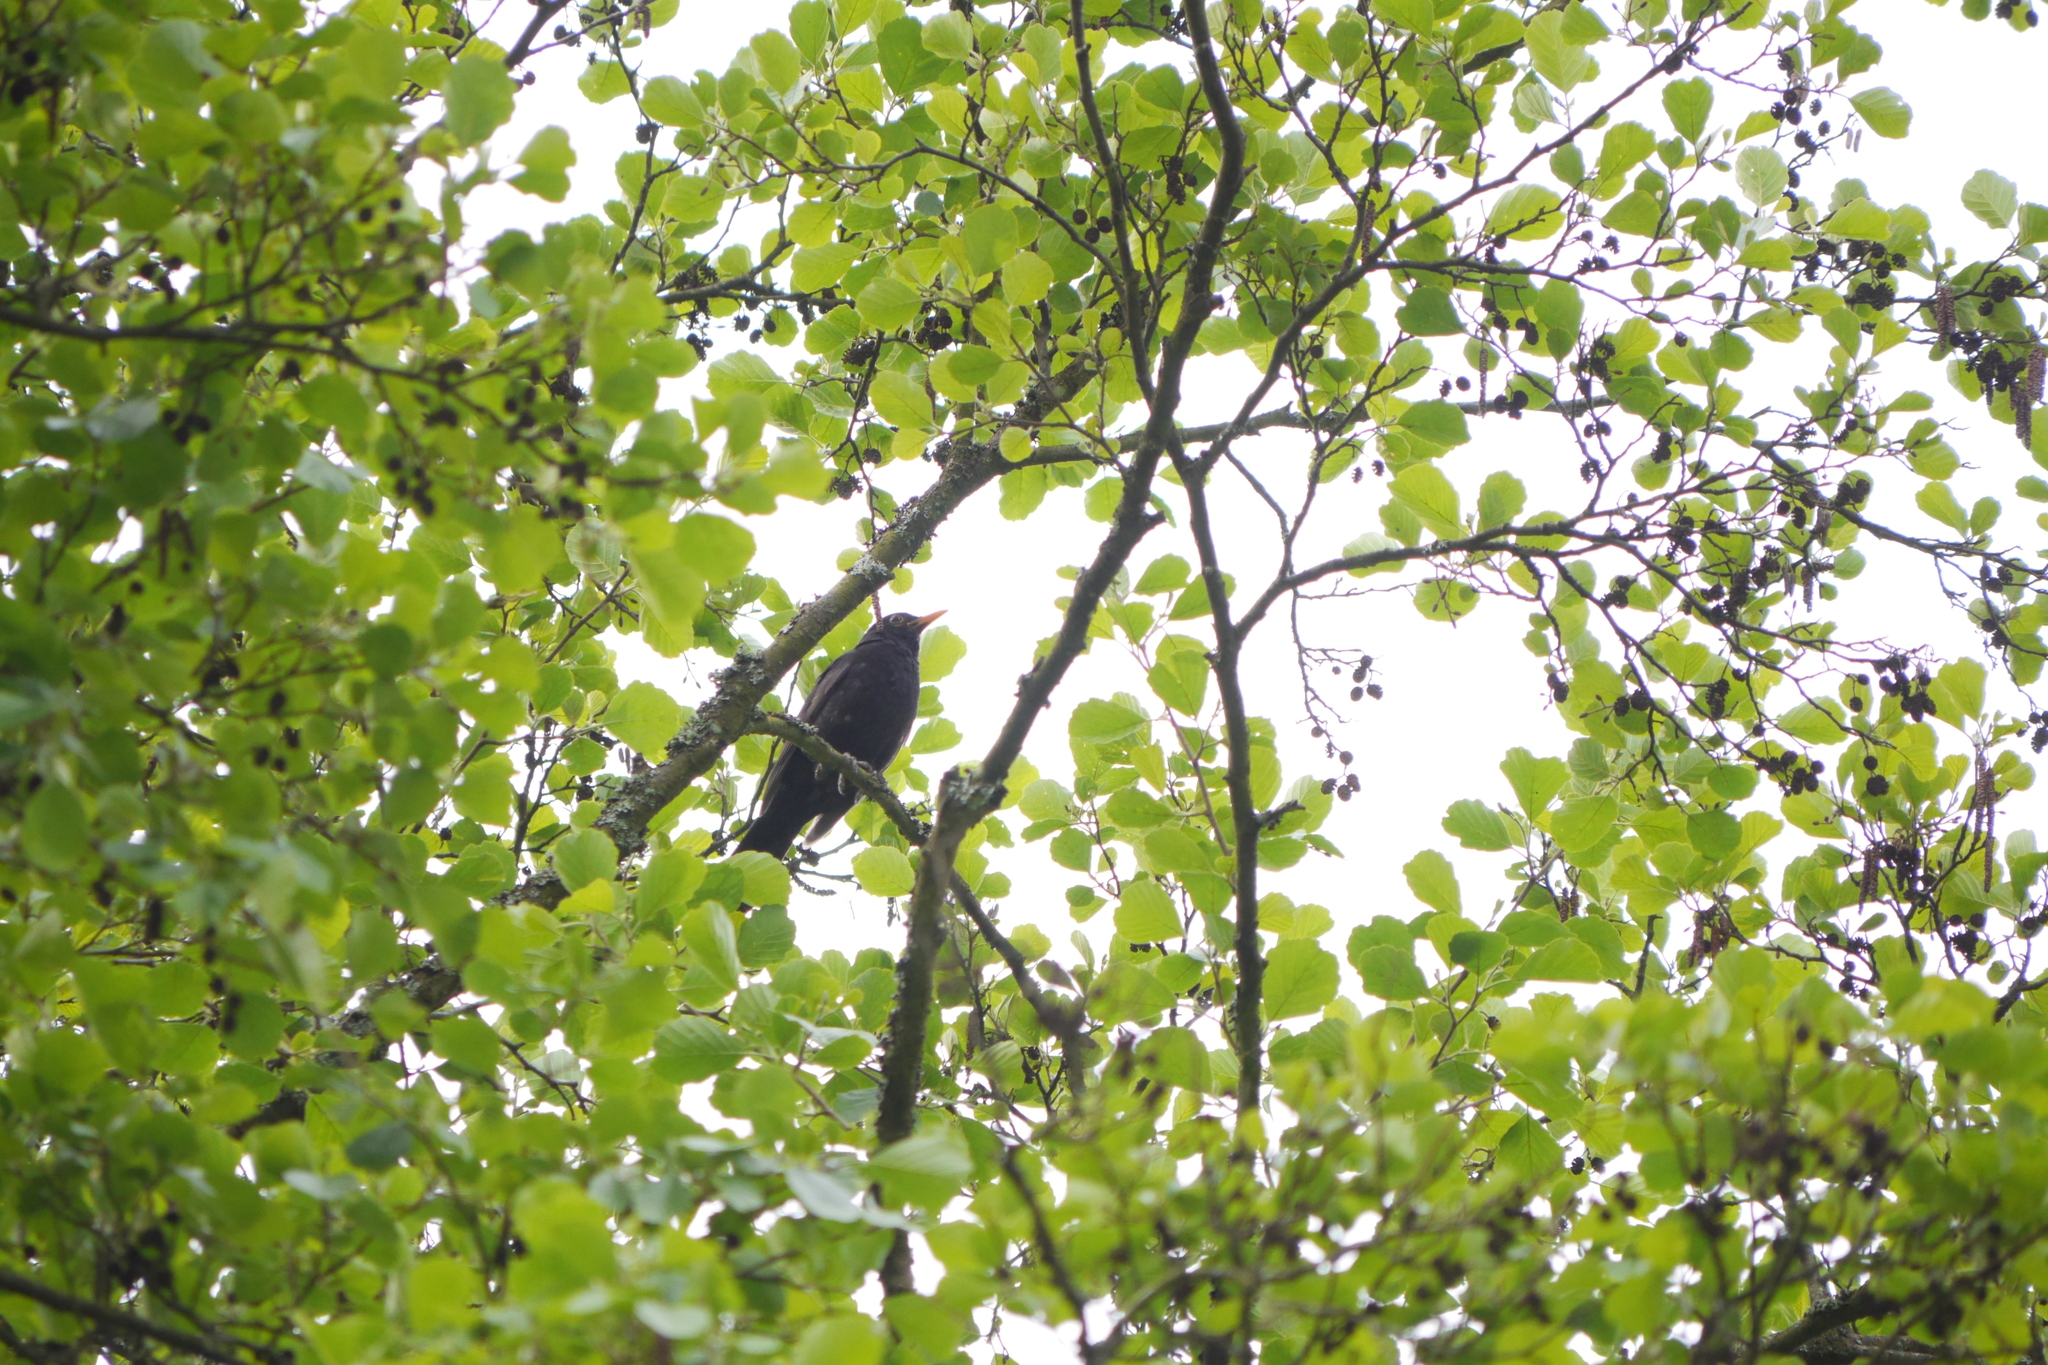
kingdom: Animalia
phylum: Chordata
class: Aves
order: Passeriformes
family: Turdidae
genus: Turdus
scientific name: Turdus merula
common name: Common blackbird
